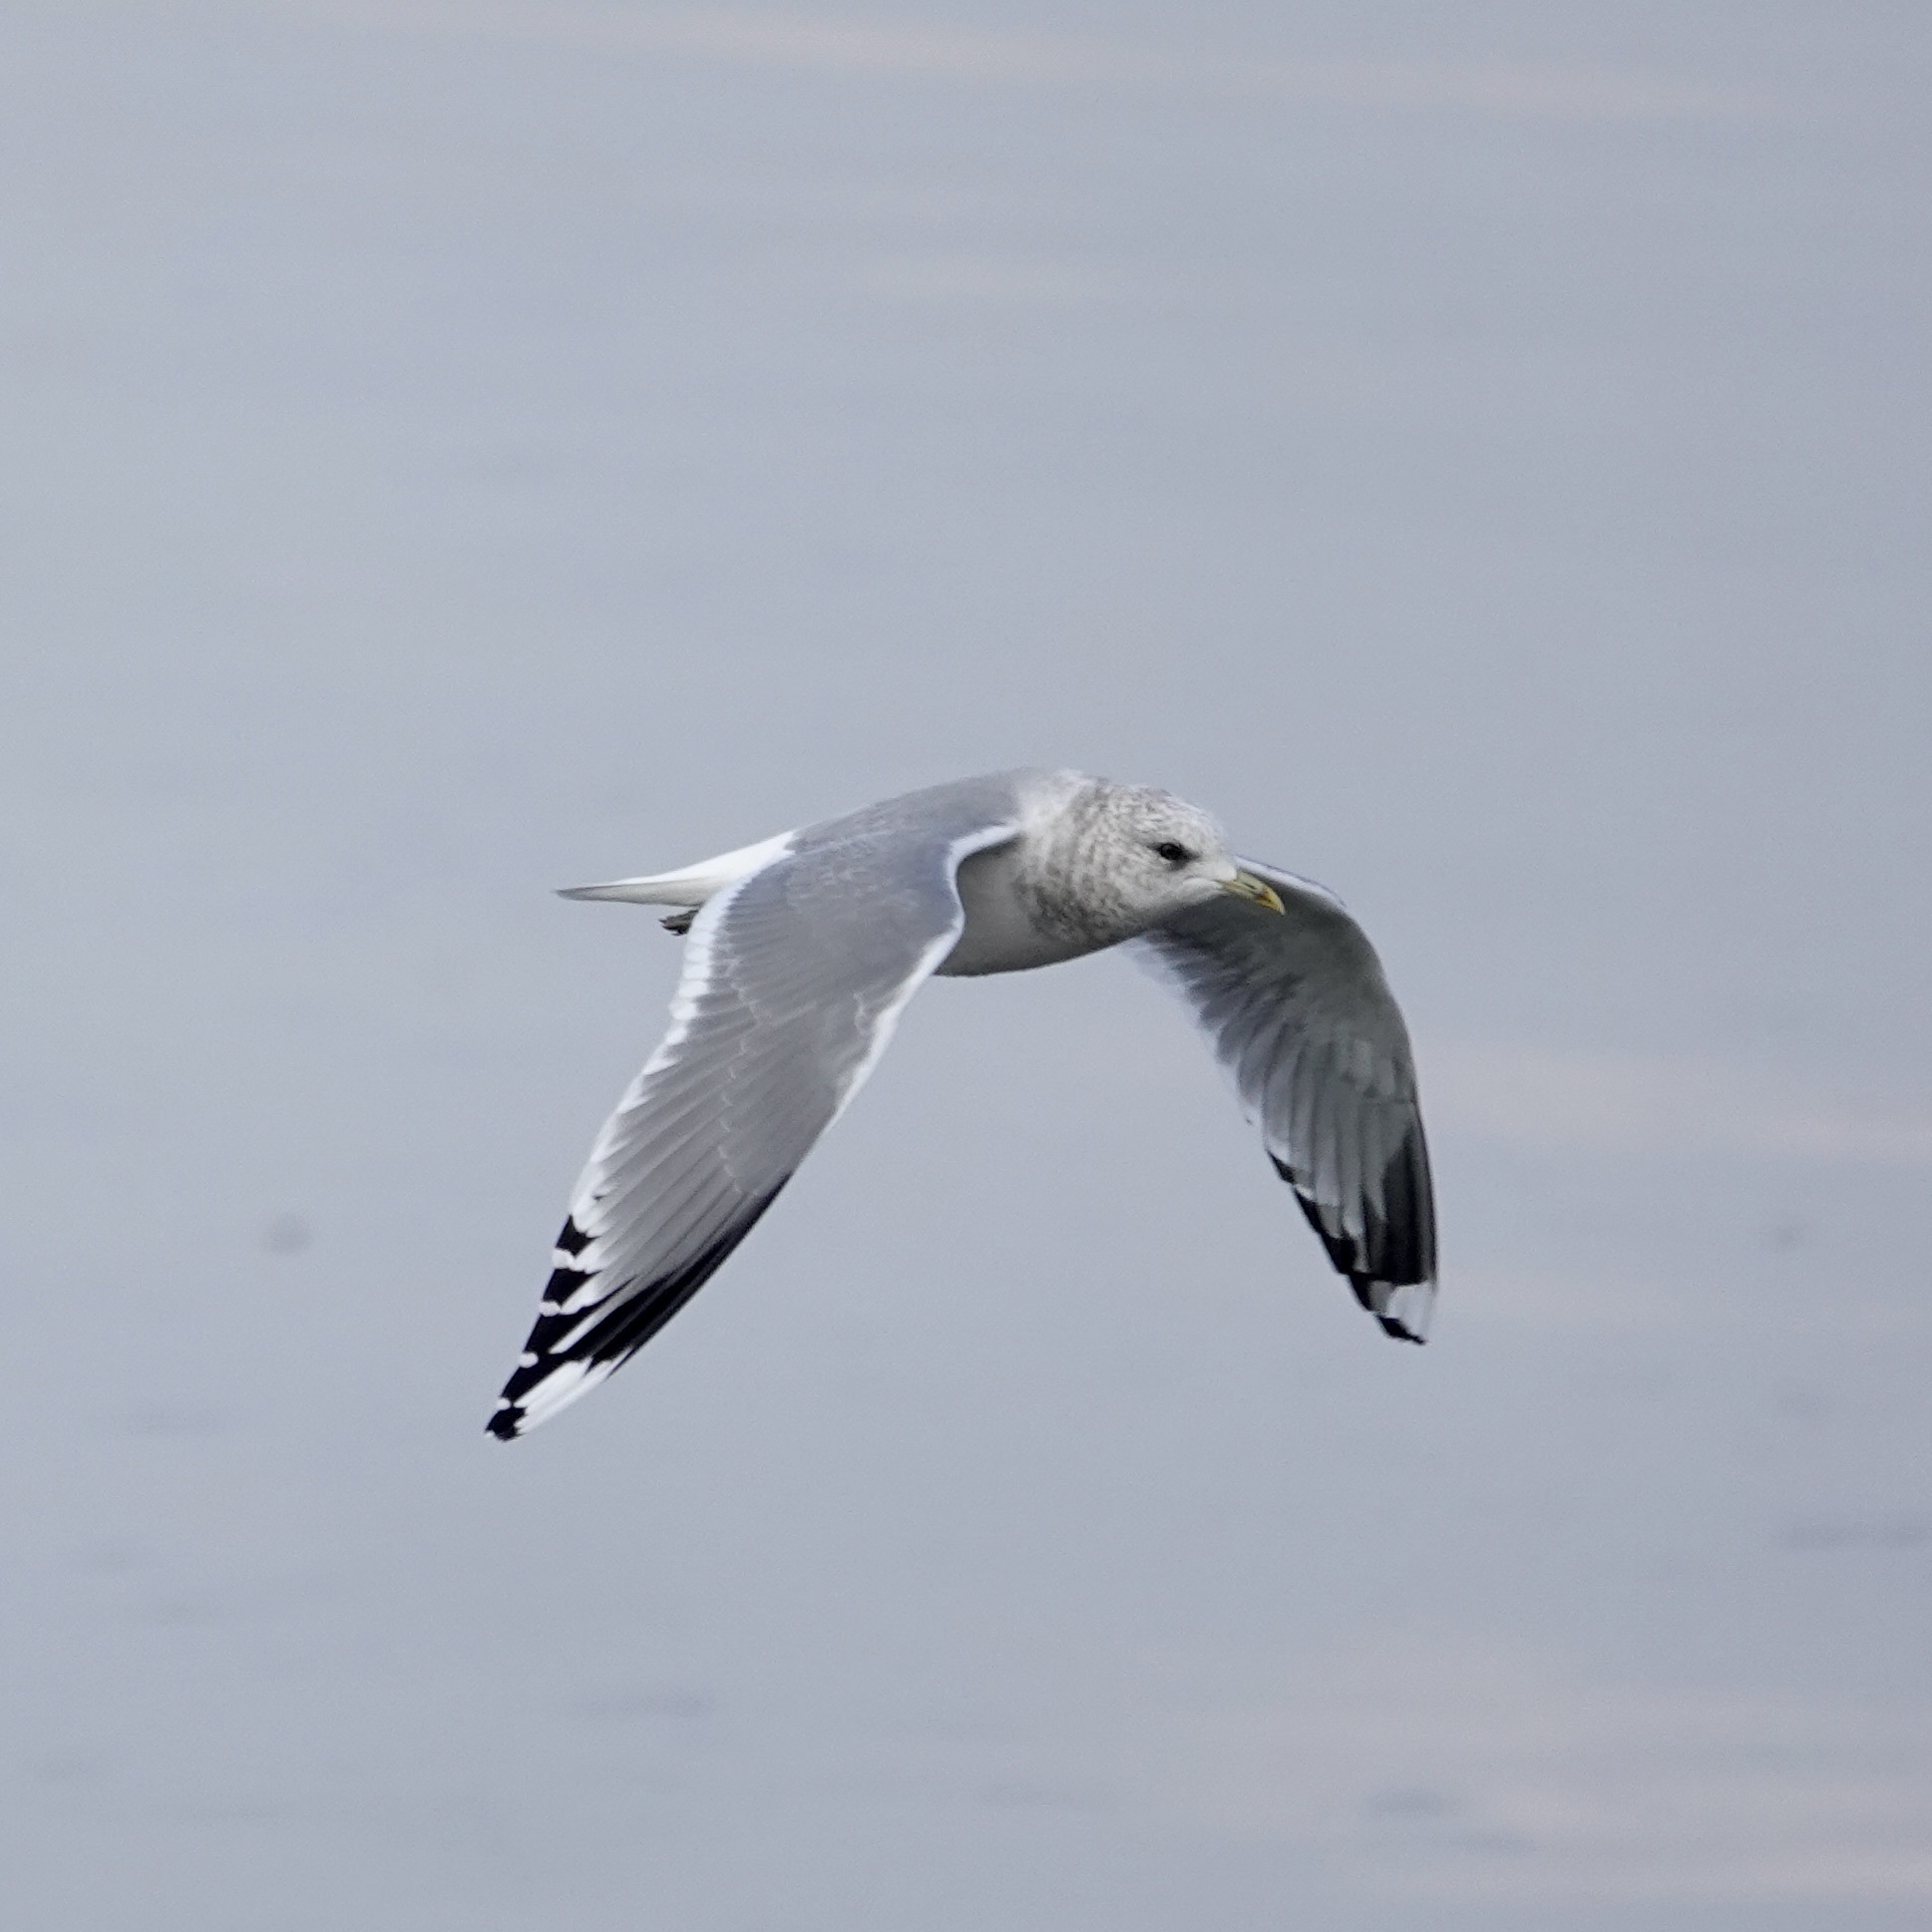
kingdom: Animalia
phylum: Chordata
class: Aves
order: Charadriiformes
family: Laridae
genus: Larus
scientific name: Larus brachyrhynchus
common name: Short-billed gull
